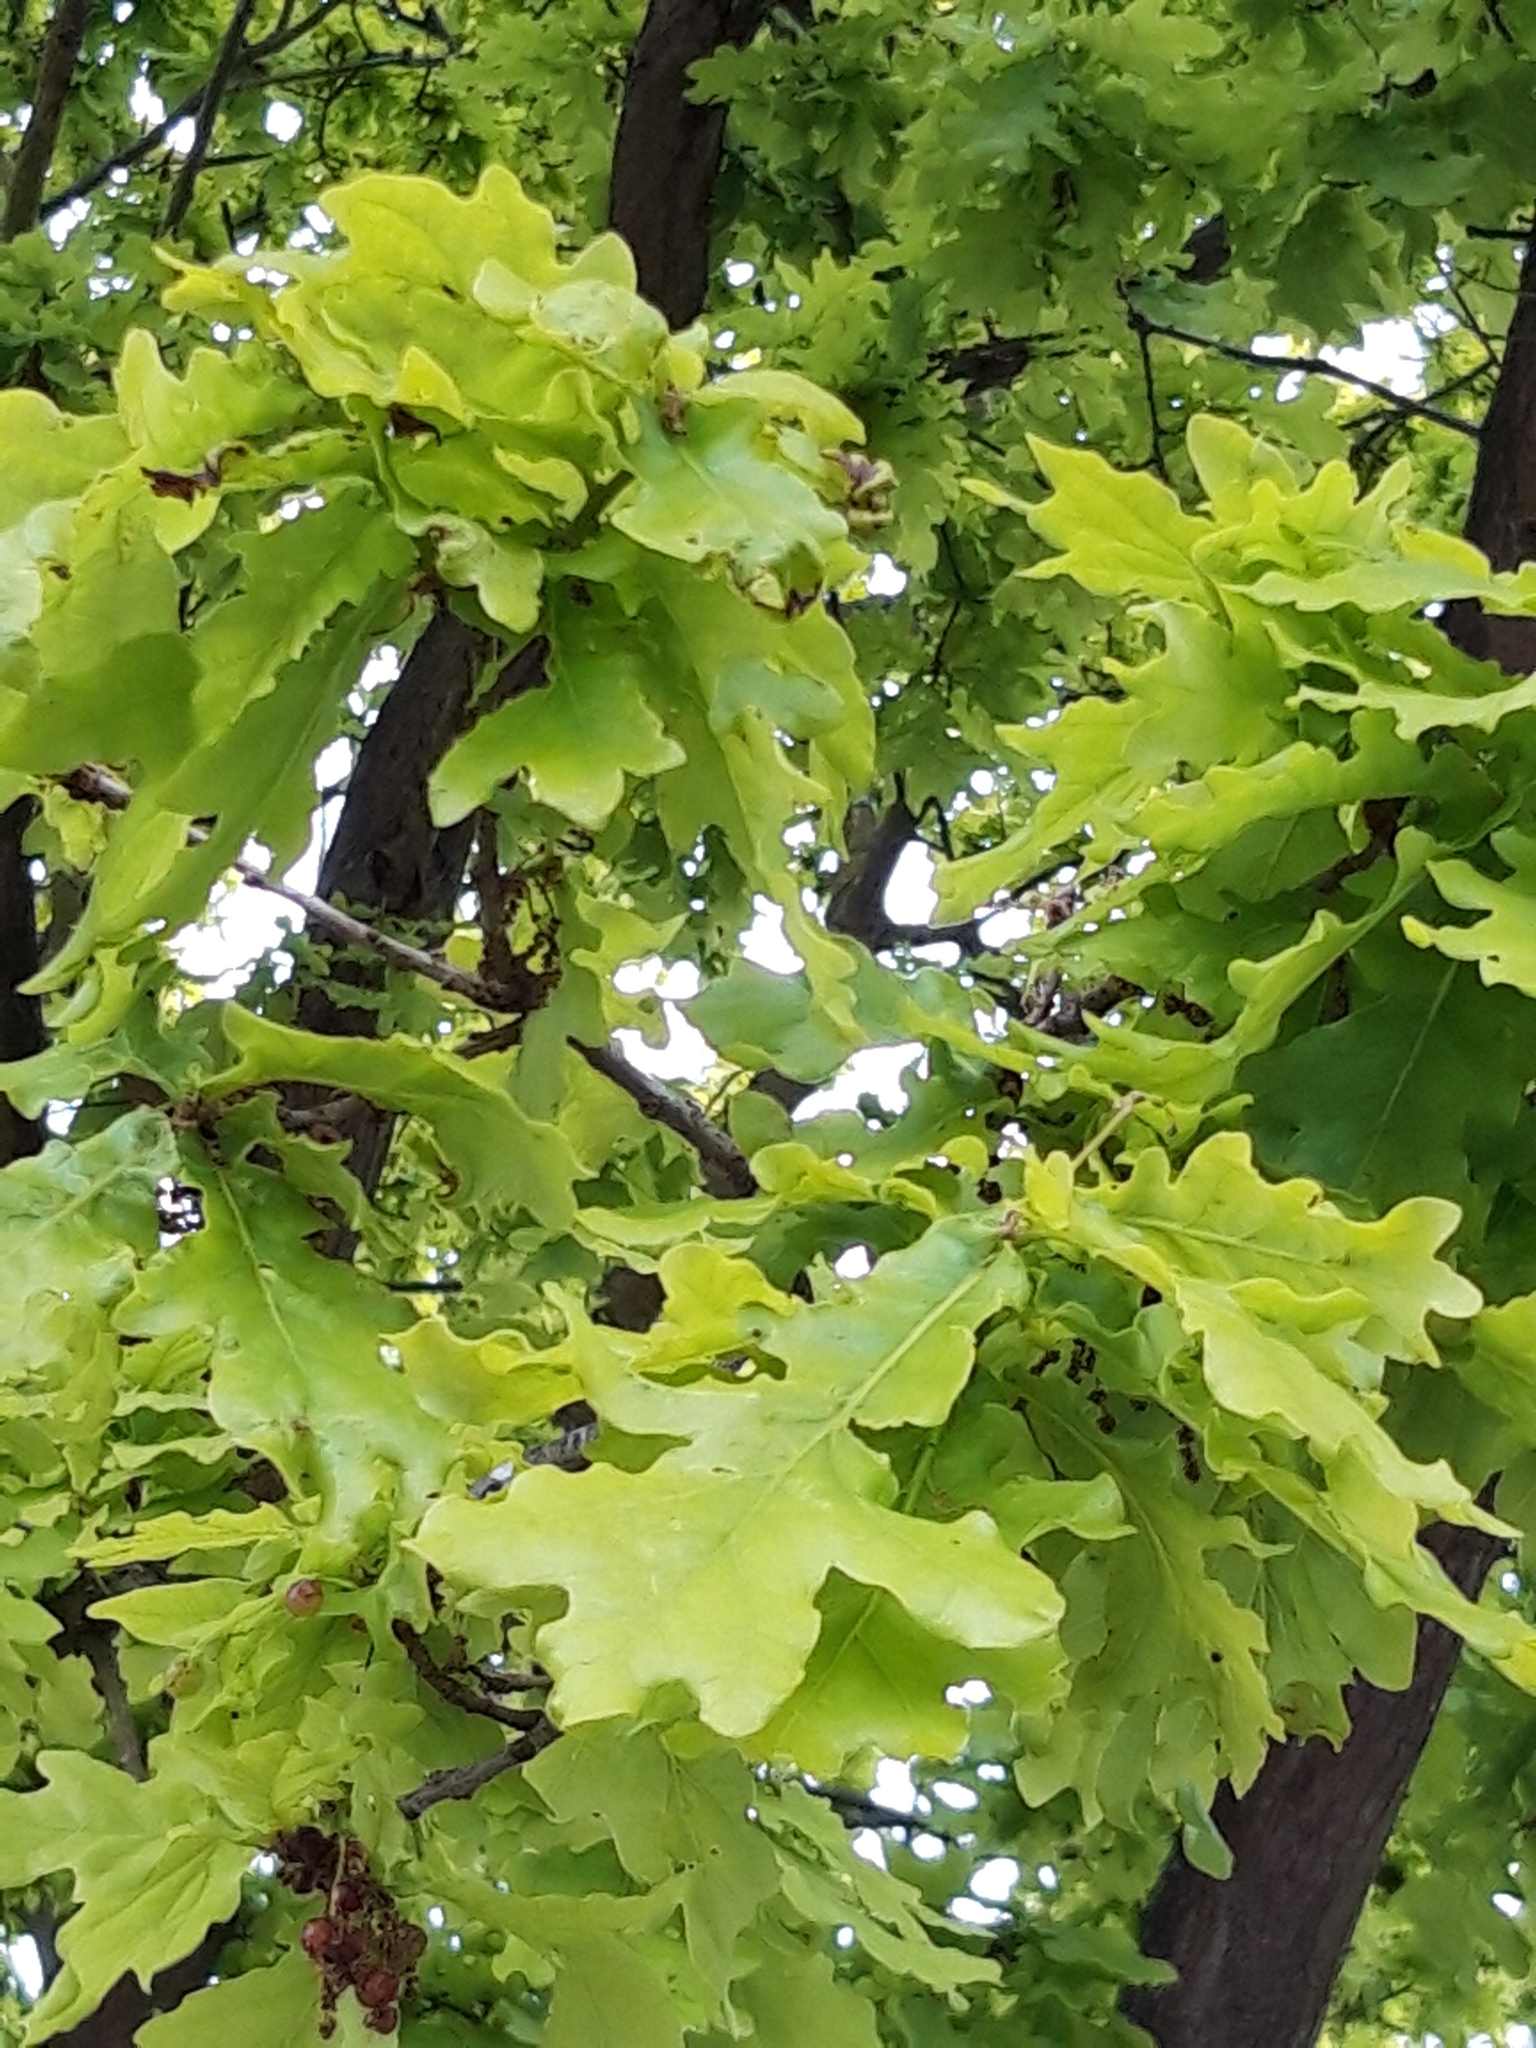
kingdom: Plantae
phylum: Tracheophyta
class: Magnoliopsida
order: Fagales
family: Fagaceae
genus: Quercus
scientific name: Quercus robur
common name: Pedunculate oak
